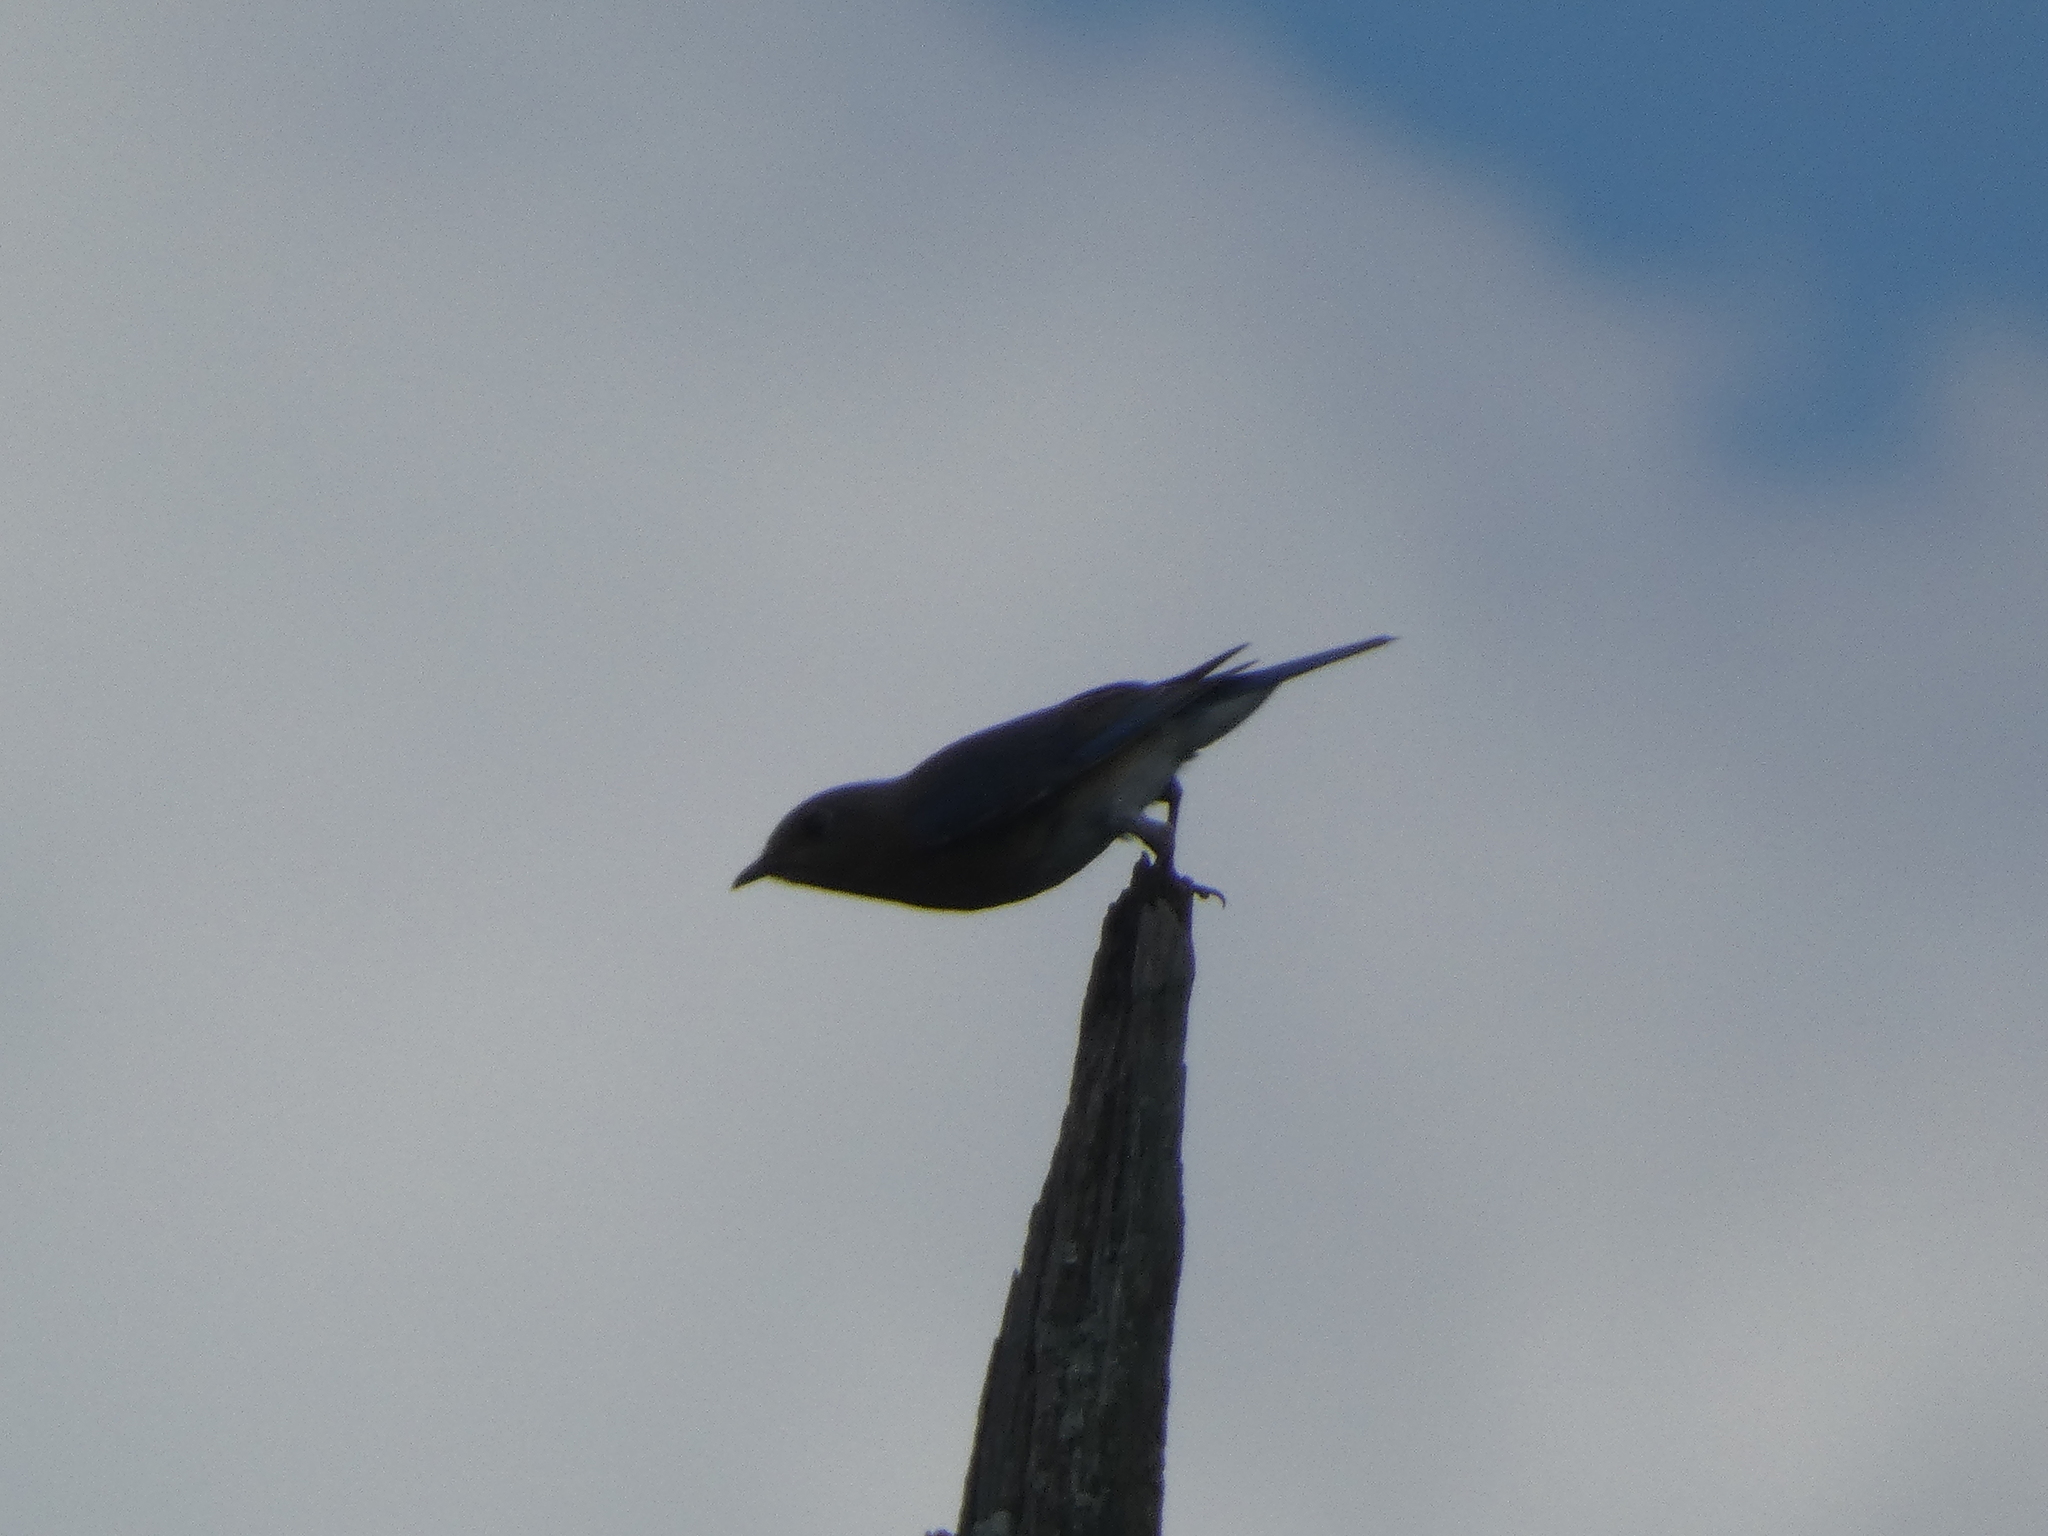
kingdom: Animalia
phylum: Chordata
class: Aves
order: Passeriformes
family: Turdidae
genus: Sialia
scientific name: Sialia sialis
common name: Eastern bluebird
